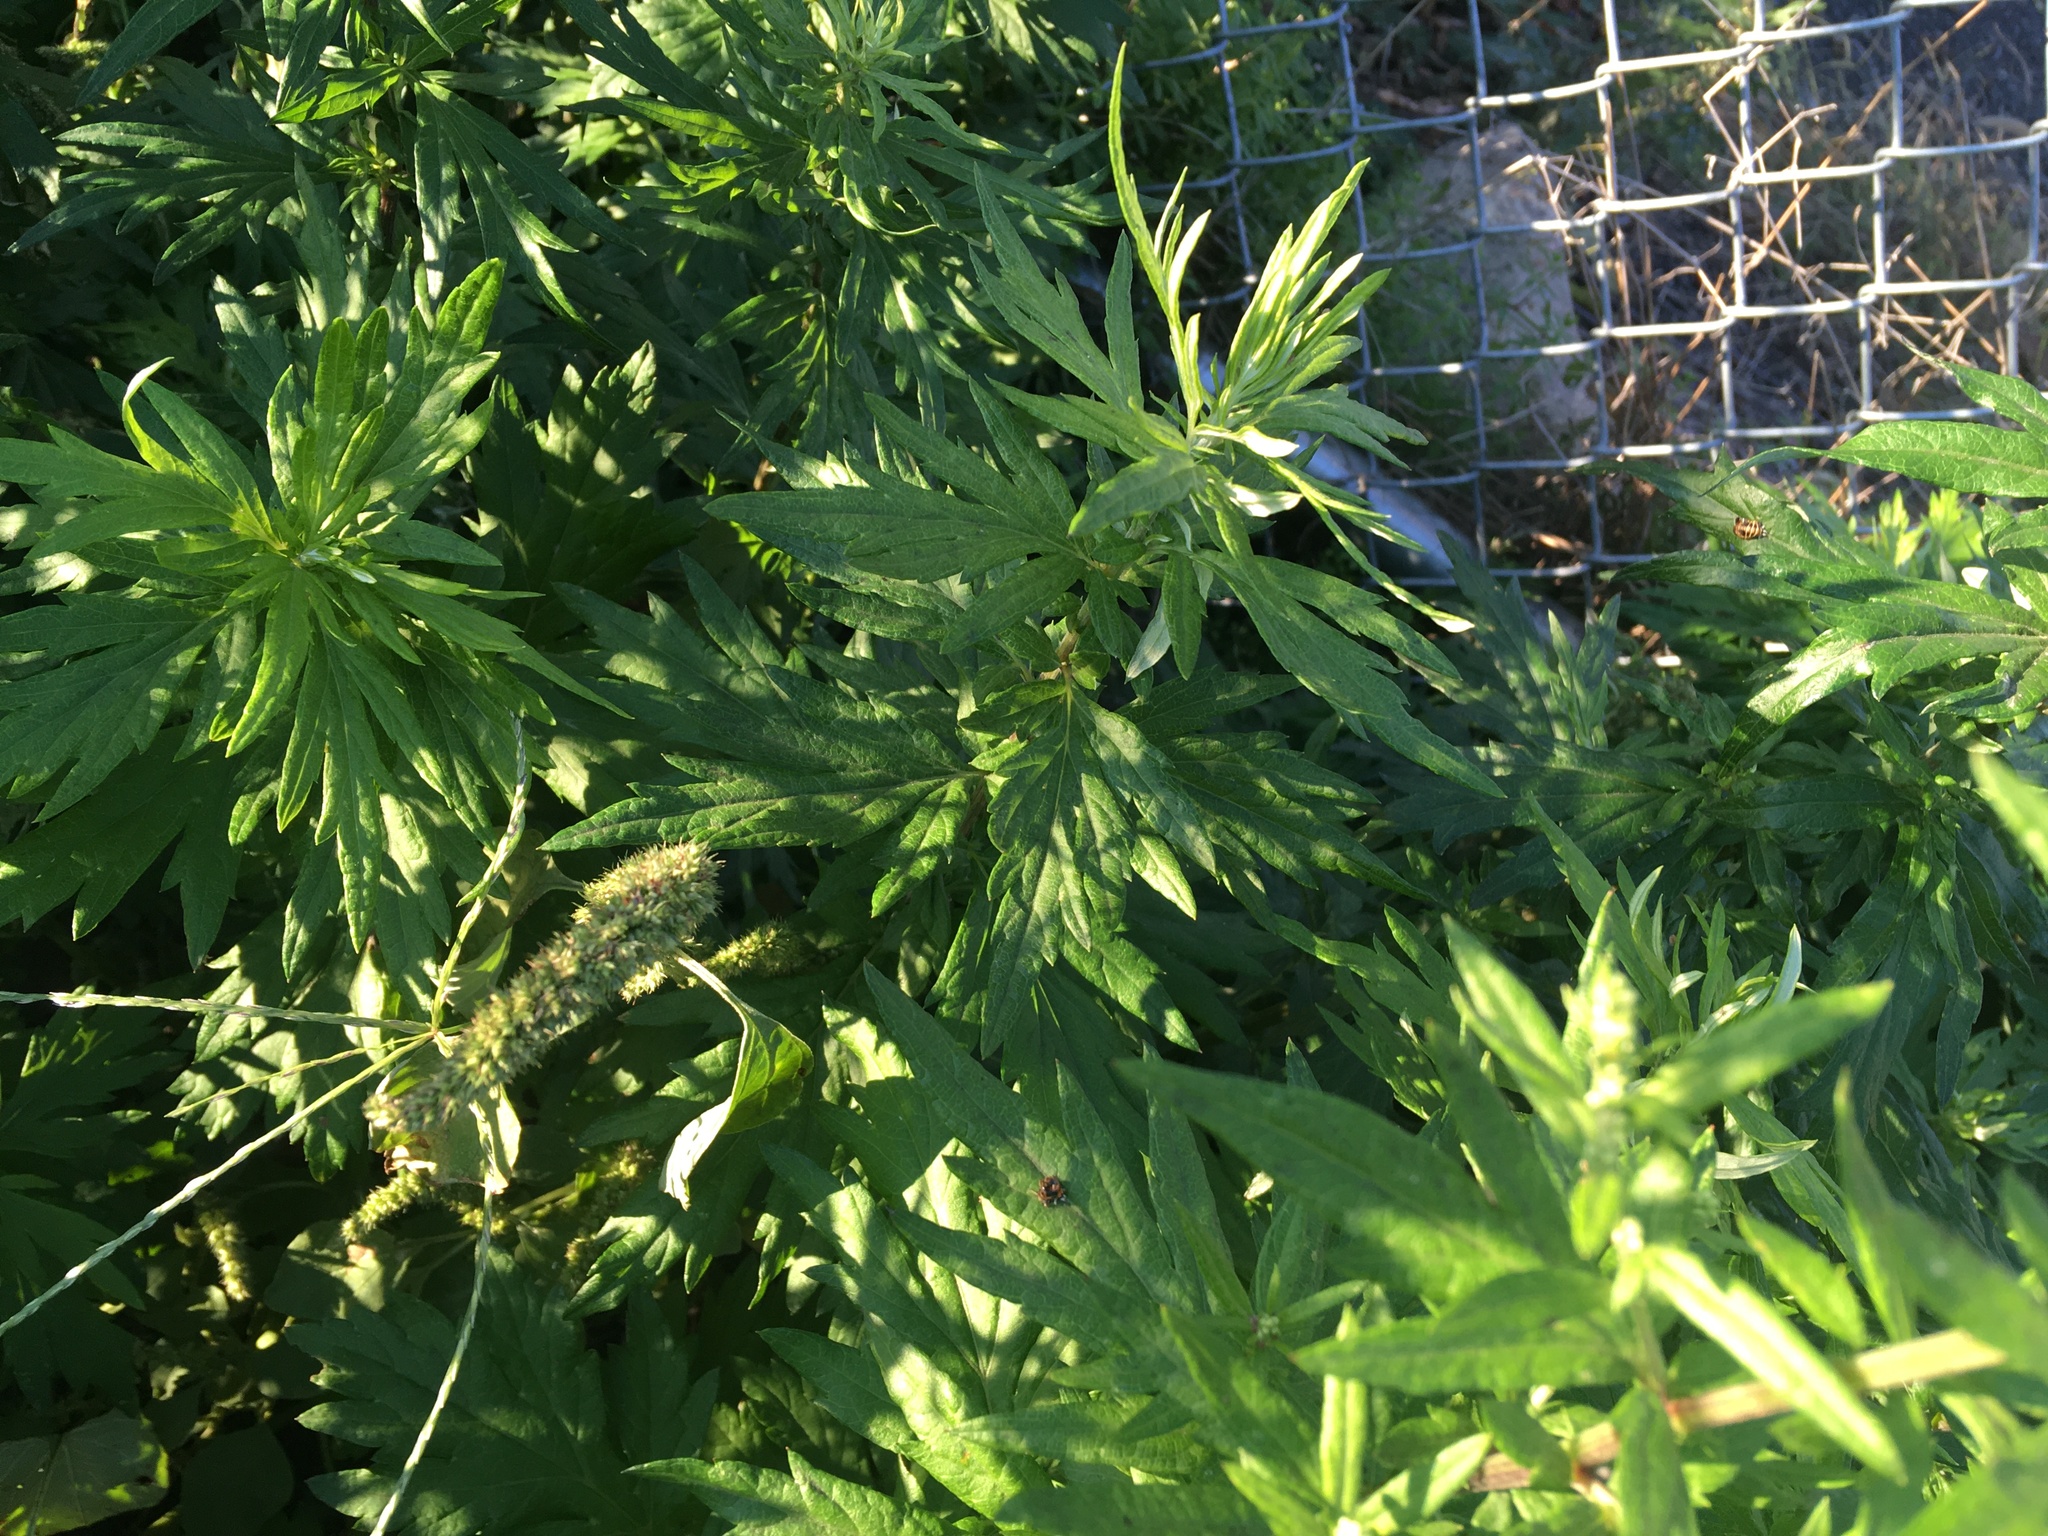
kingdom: Plantae
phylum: Tracheophyta
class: Magnoliopsida
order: Asterales
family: Asteraceae
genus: Artemisia
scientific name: Artemisia vulgaris
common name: Mugwort
